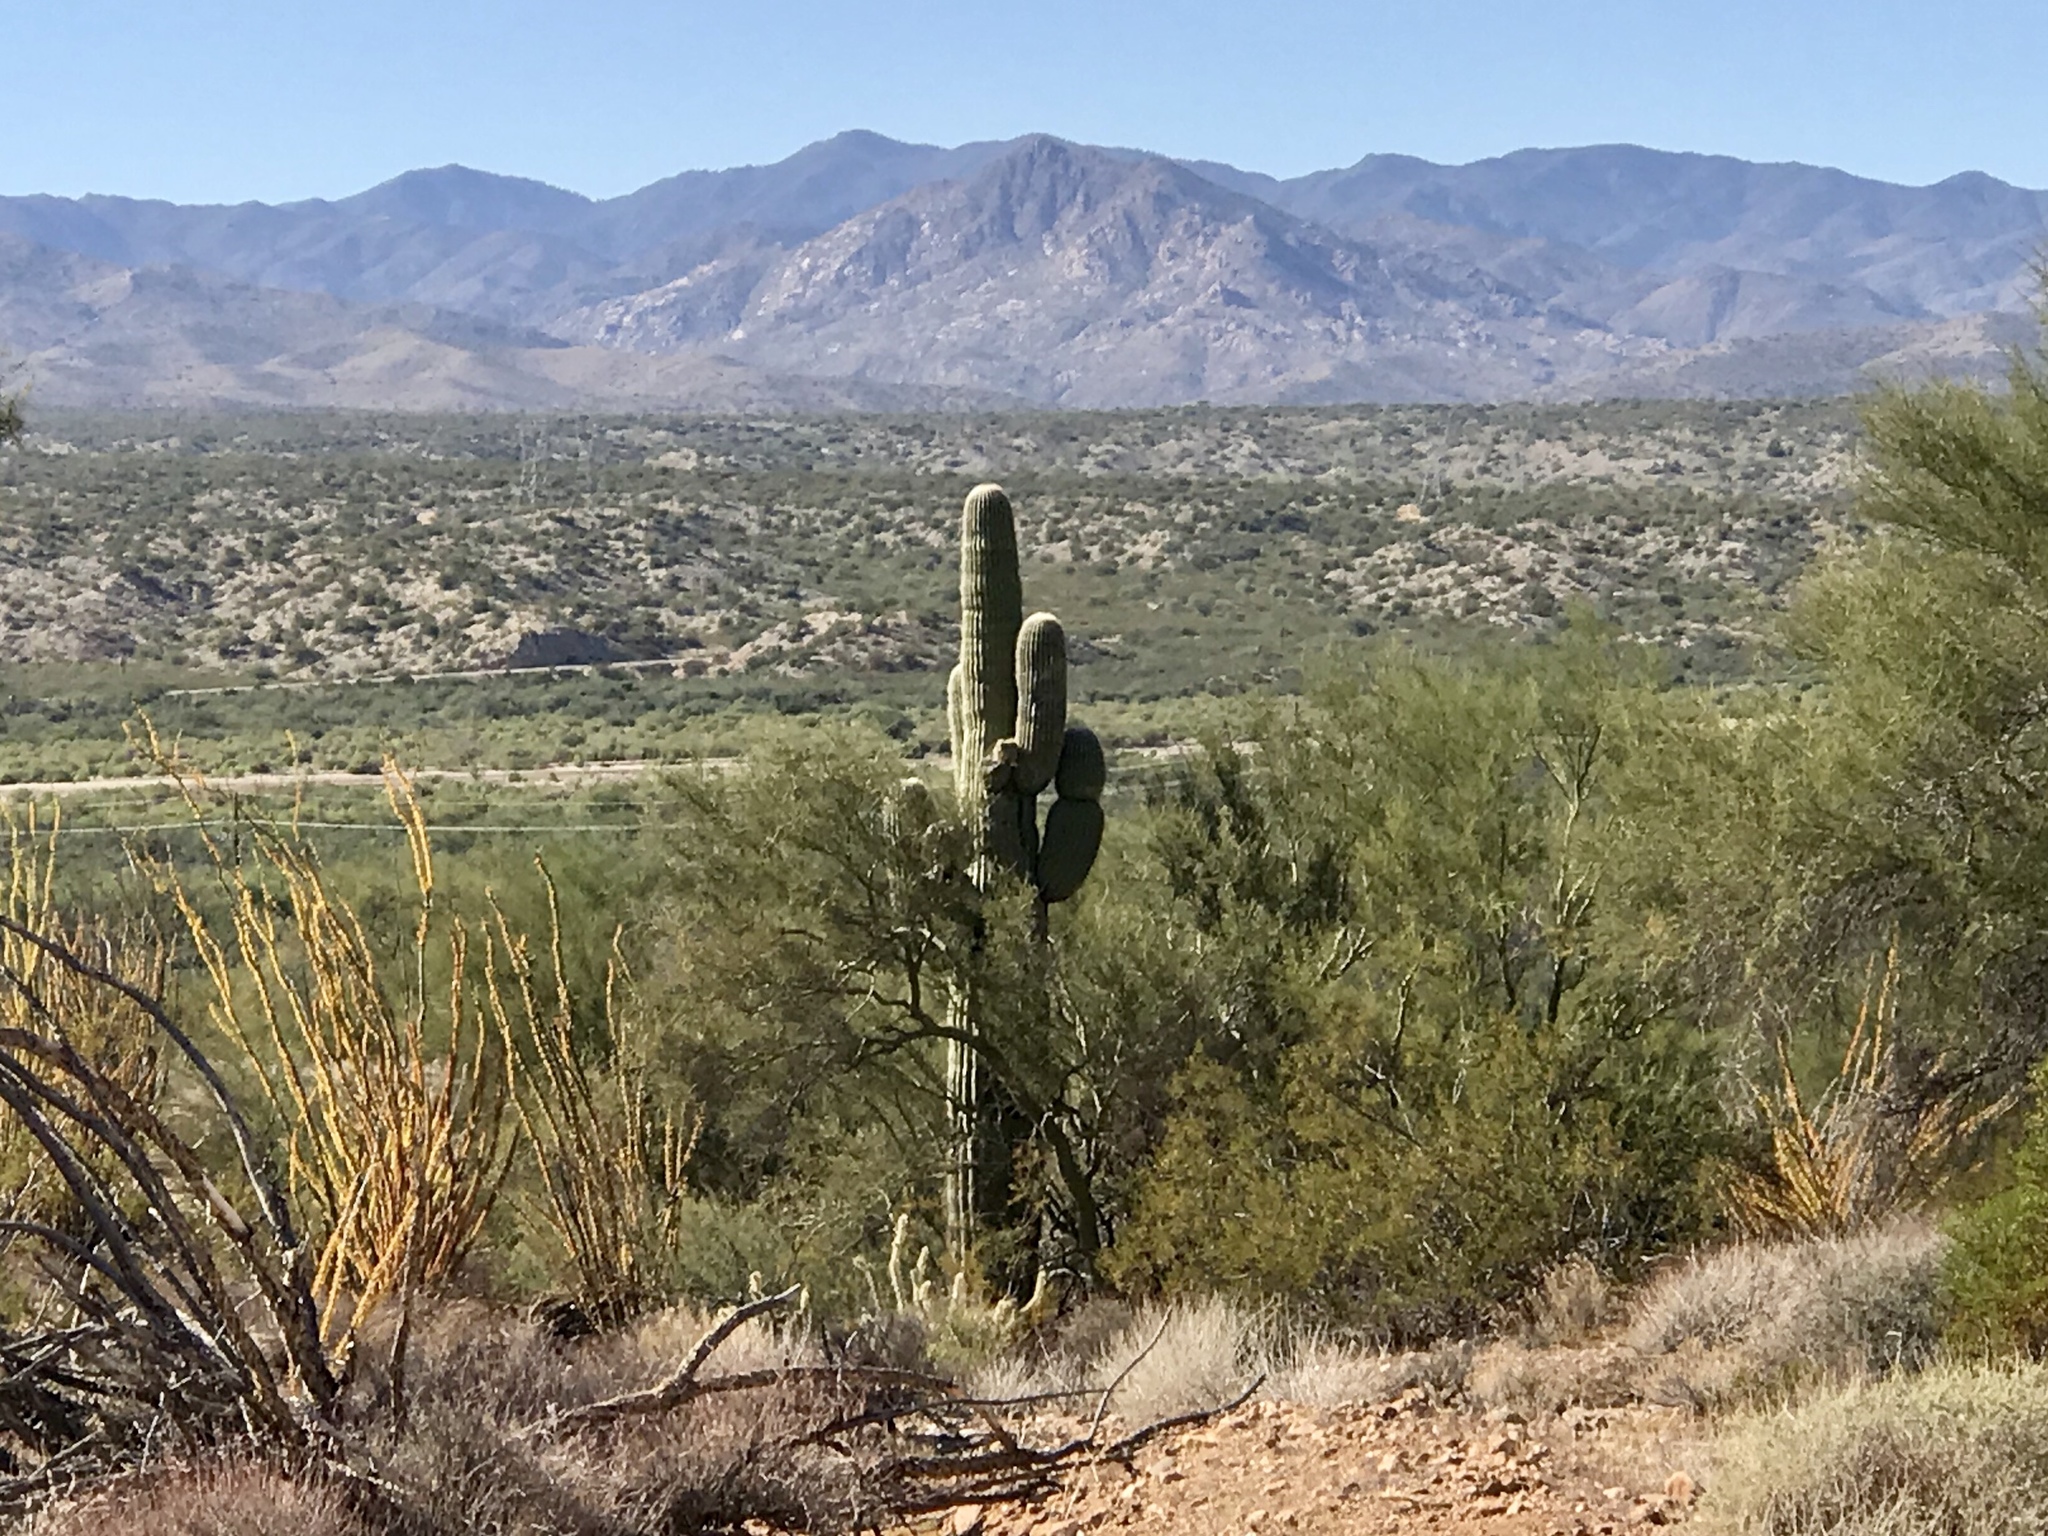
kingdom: Plantae
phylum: Tracheophyta
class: Magnoliopsida
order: Caryophyllales
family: Cactaceae
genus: Carnegiea
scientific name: Carnegiea gigantea
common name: Saguaro
